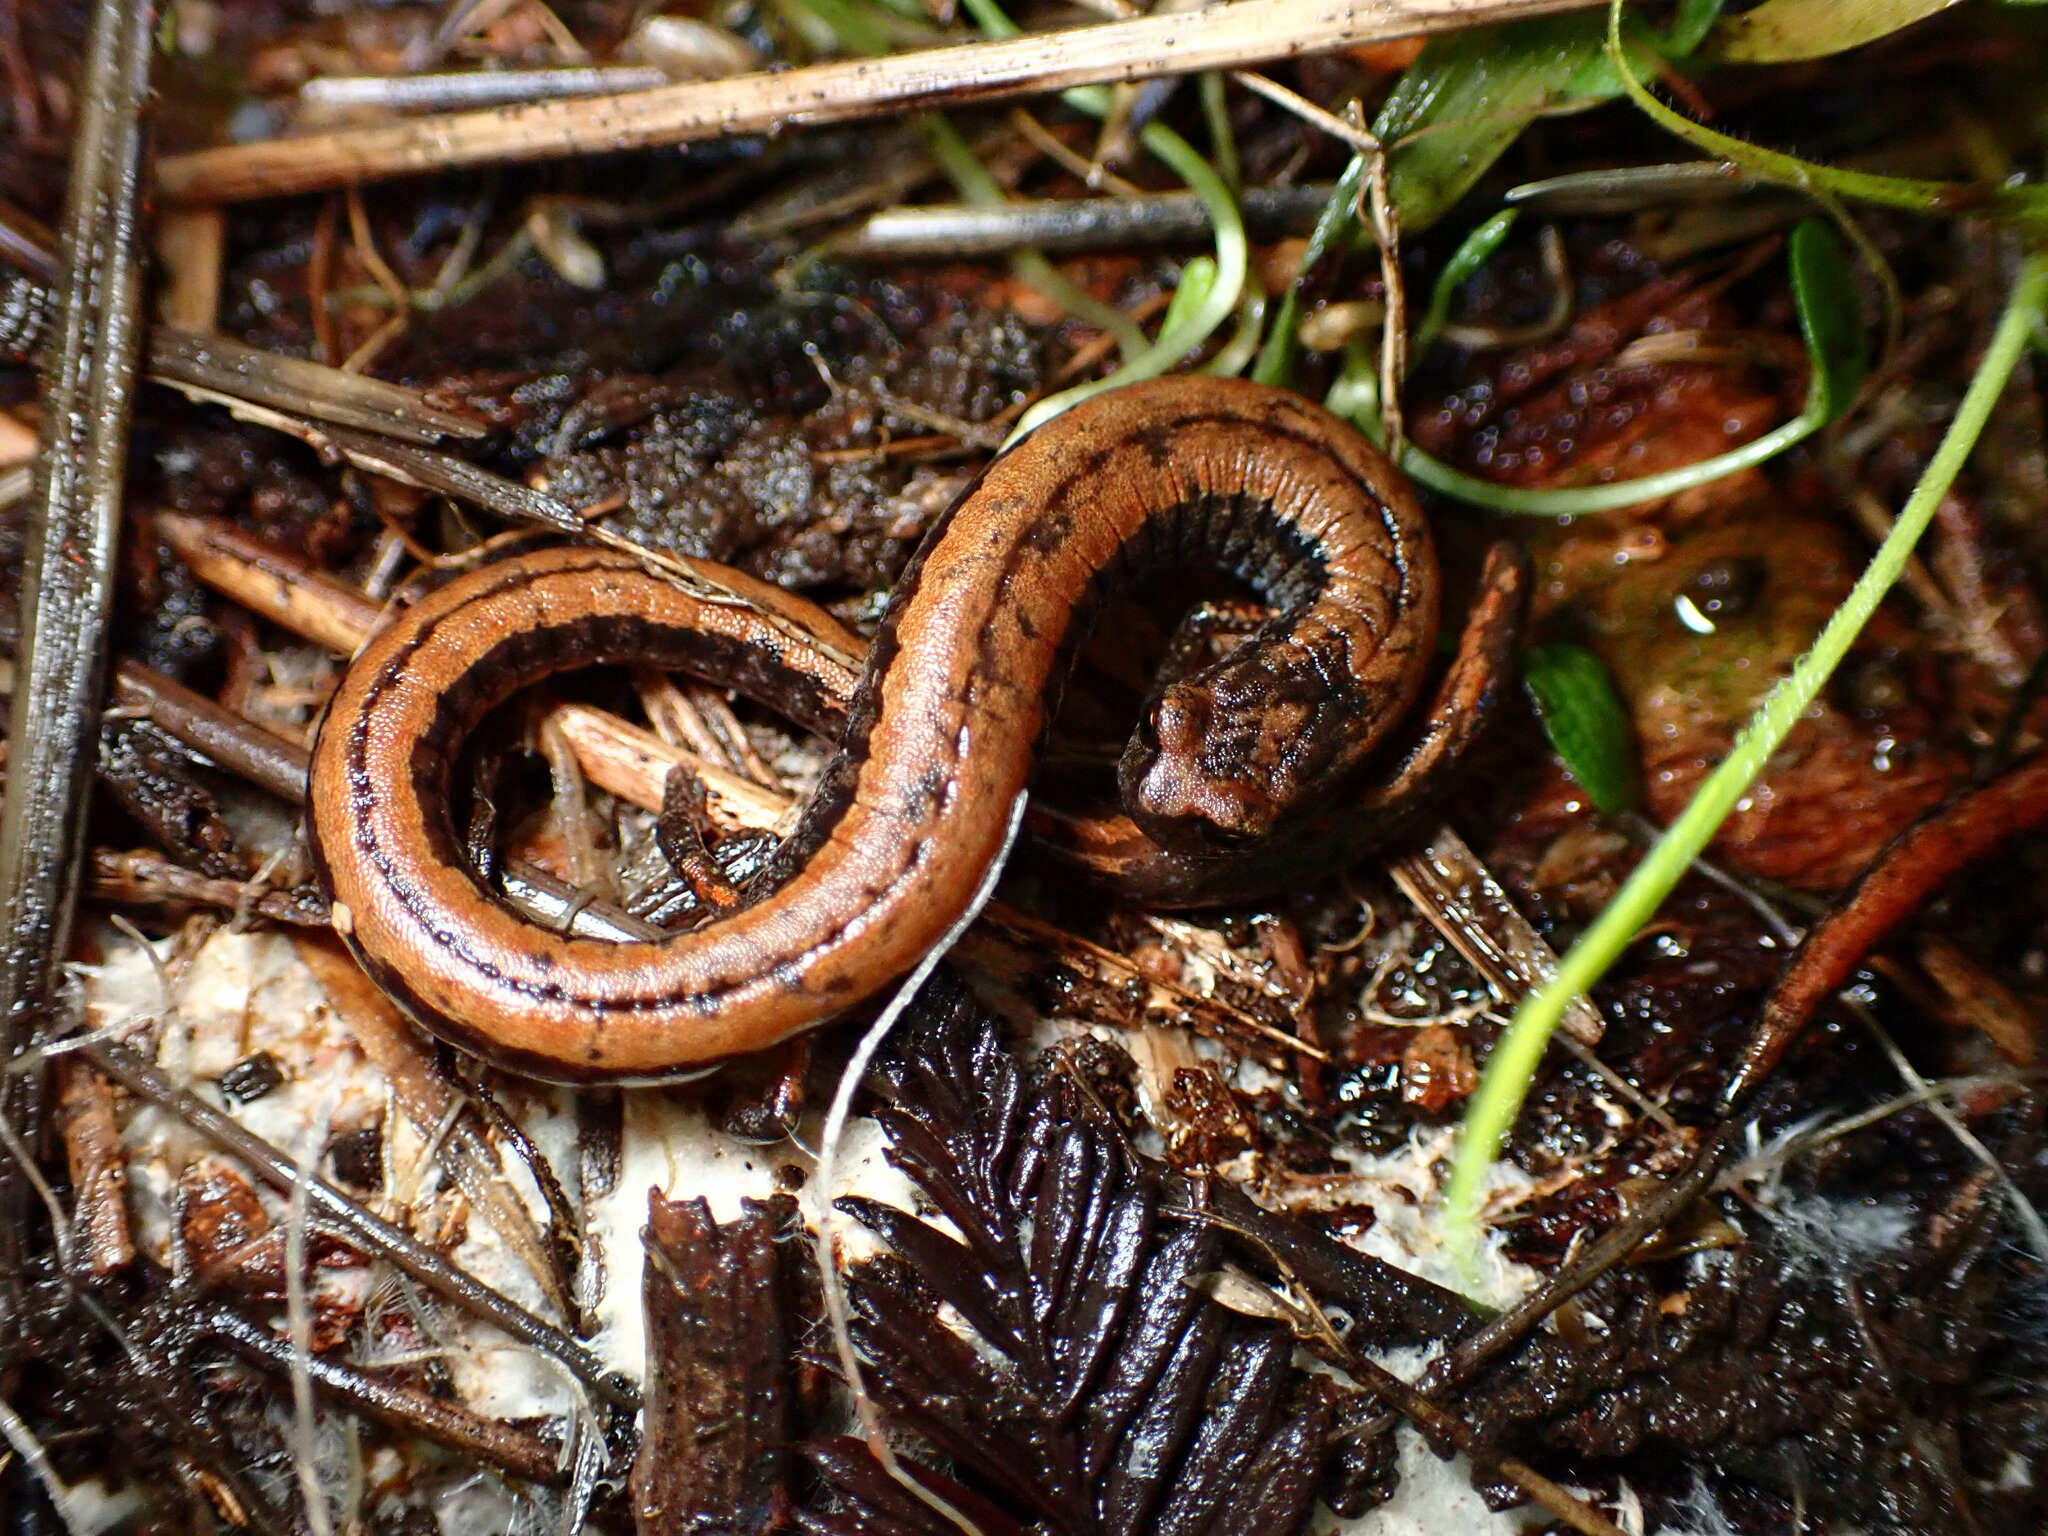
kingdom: Animalia
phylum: Chordata
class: Amphibia
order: Caudata
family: Plethodontidae
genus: Batrachoseps
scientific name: Batrachoseps attenuatus
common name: California slender salamander
